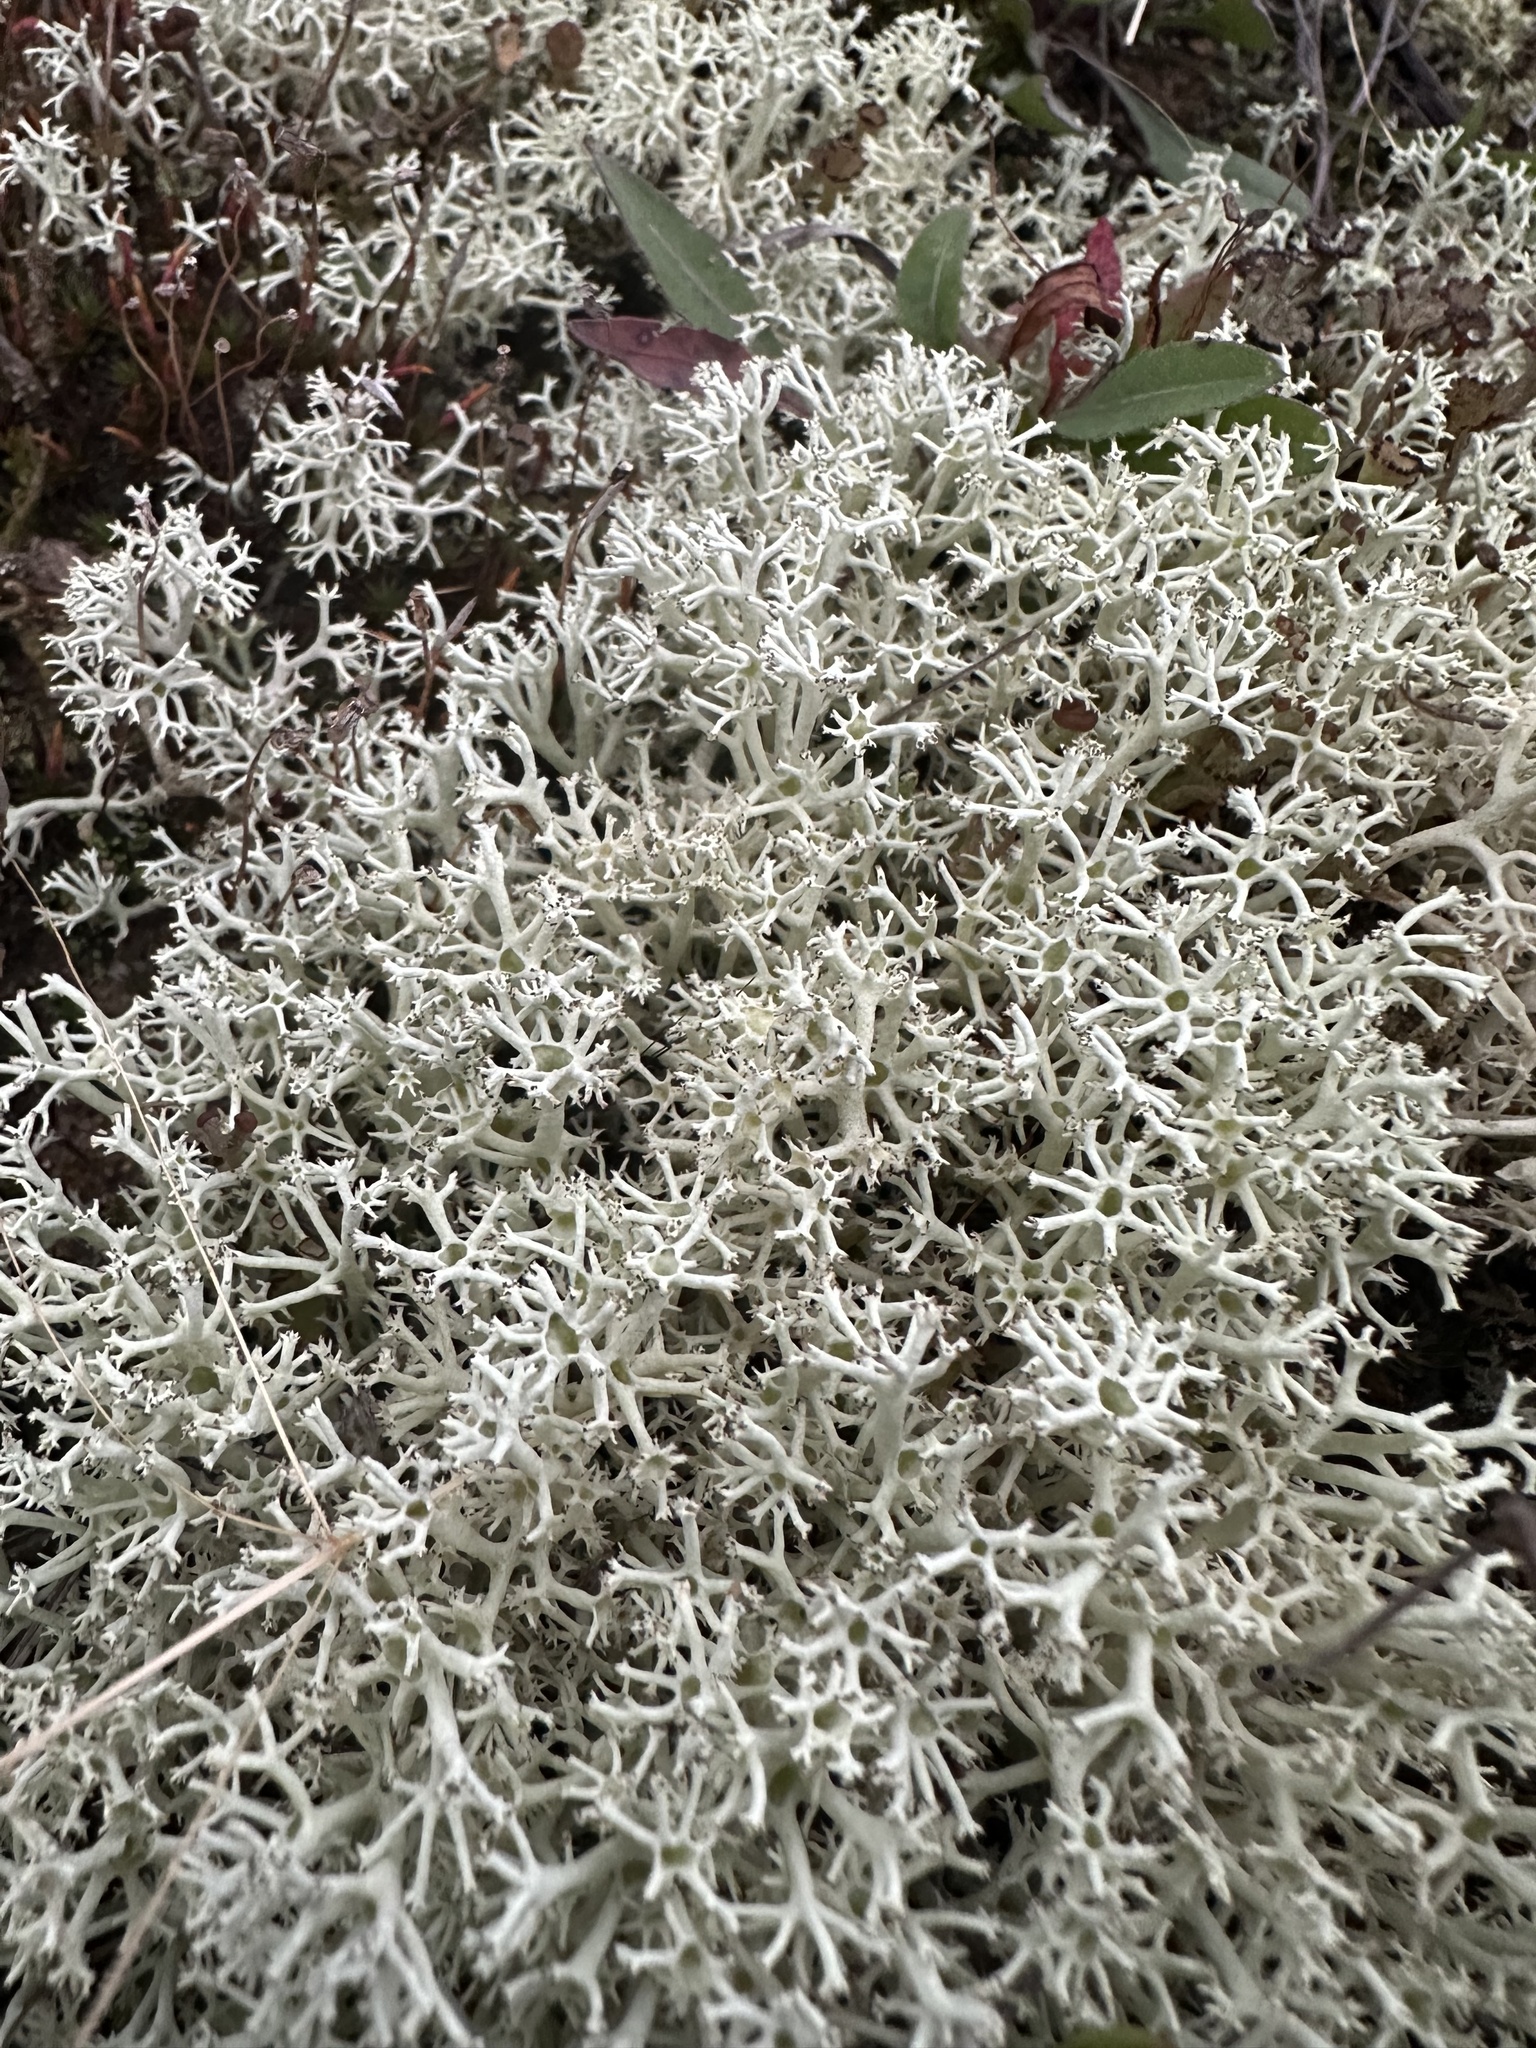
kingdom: Fungi
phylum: Ascomycota
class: Lecanoromycetes
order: Lecanorales
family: Cladoniaceae
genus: Cladonia
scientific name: Cladonia rangiferina
